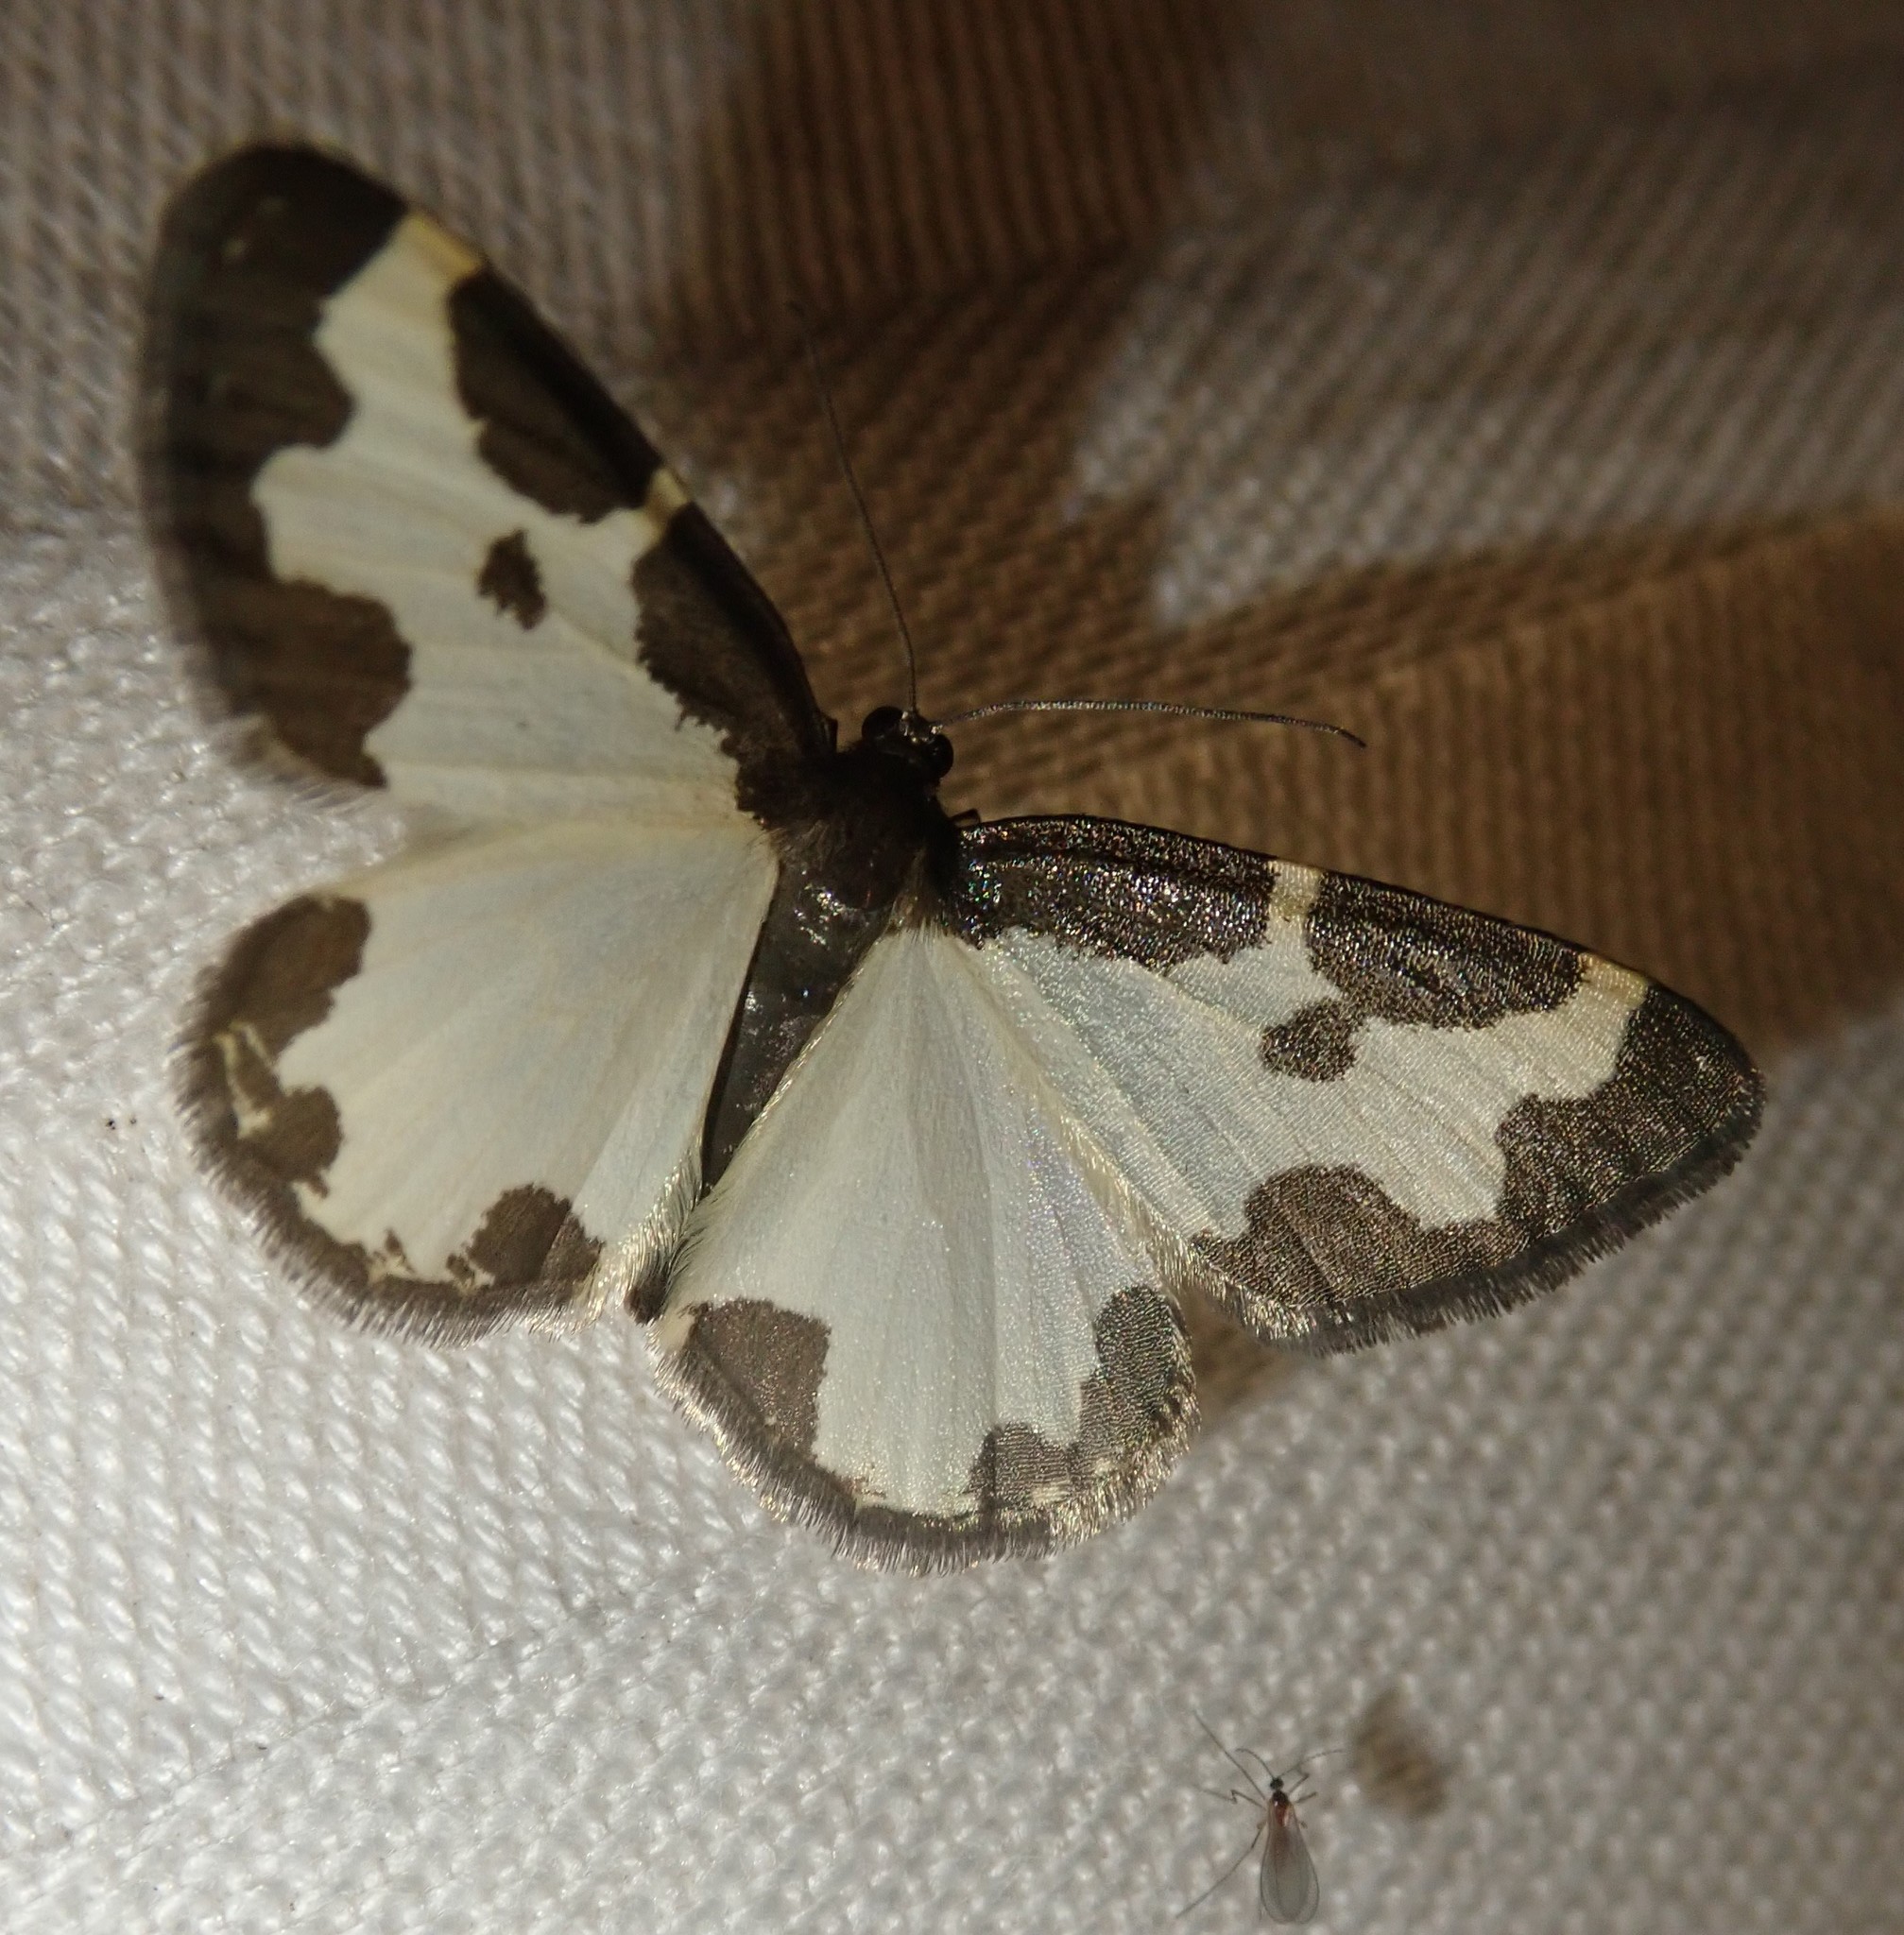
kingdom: Animalia
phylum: Arthropoda
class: Insecta
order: Lepidoptera
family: Geometridae
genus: Lomaspilis
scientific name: Lomaspilis marginata
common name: Clouded border
